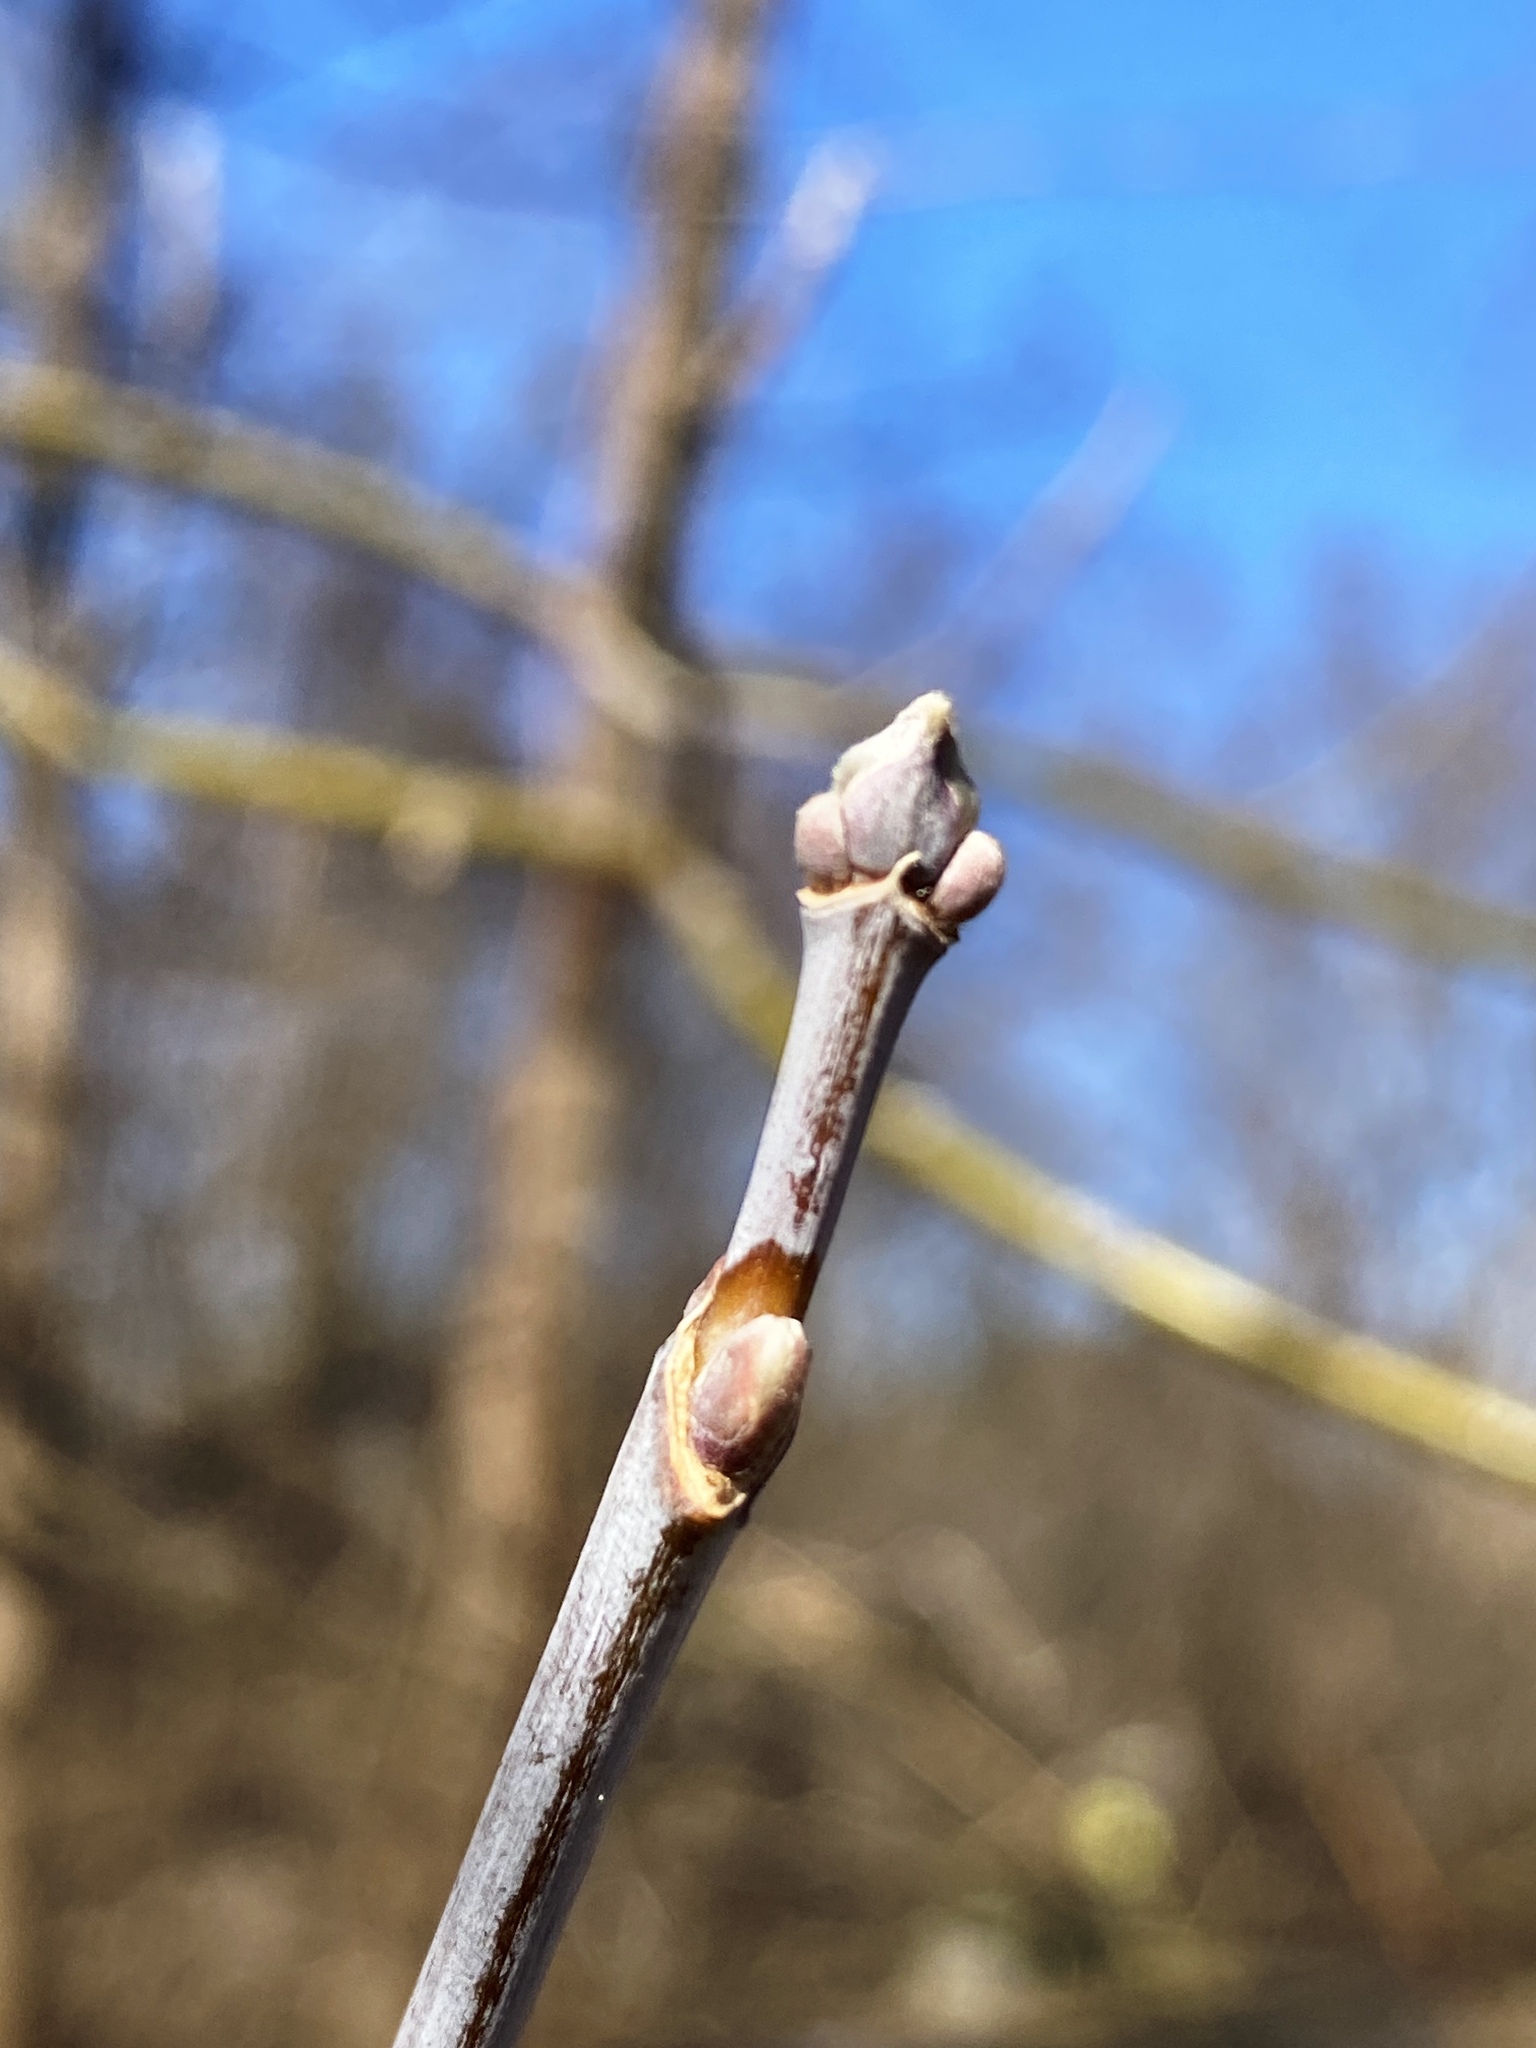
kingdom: Plantae
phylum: Tracheophyta
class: Magnoliopsida
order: Sapindales
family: Sapindaceae
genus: Acer
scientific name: Acer negundo
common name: Ashleaf maple
